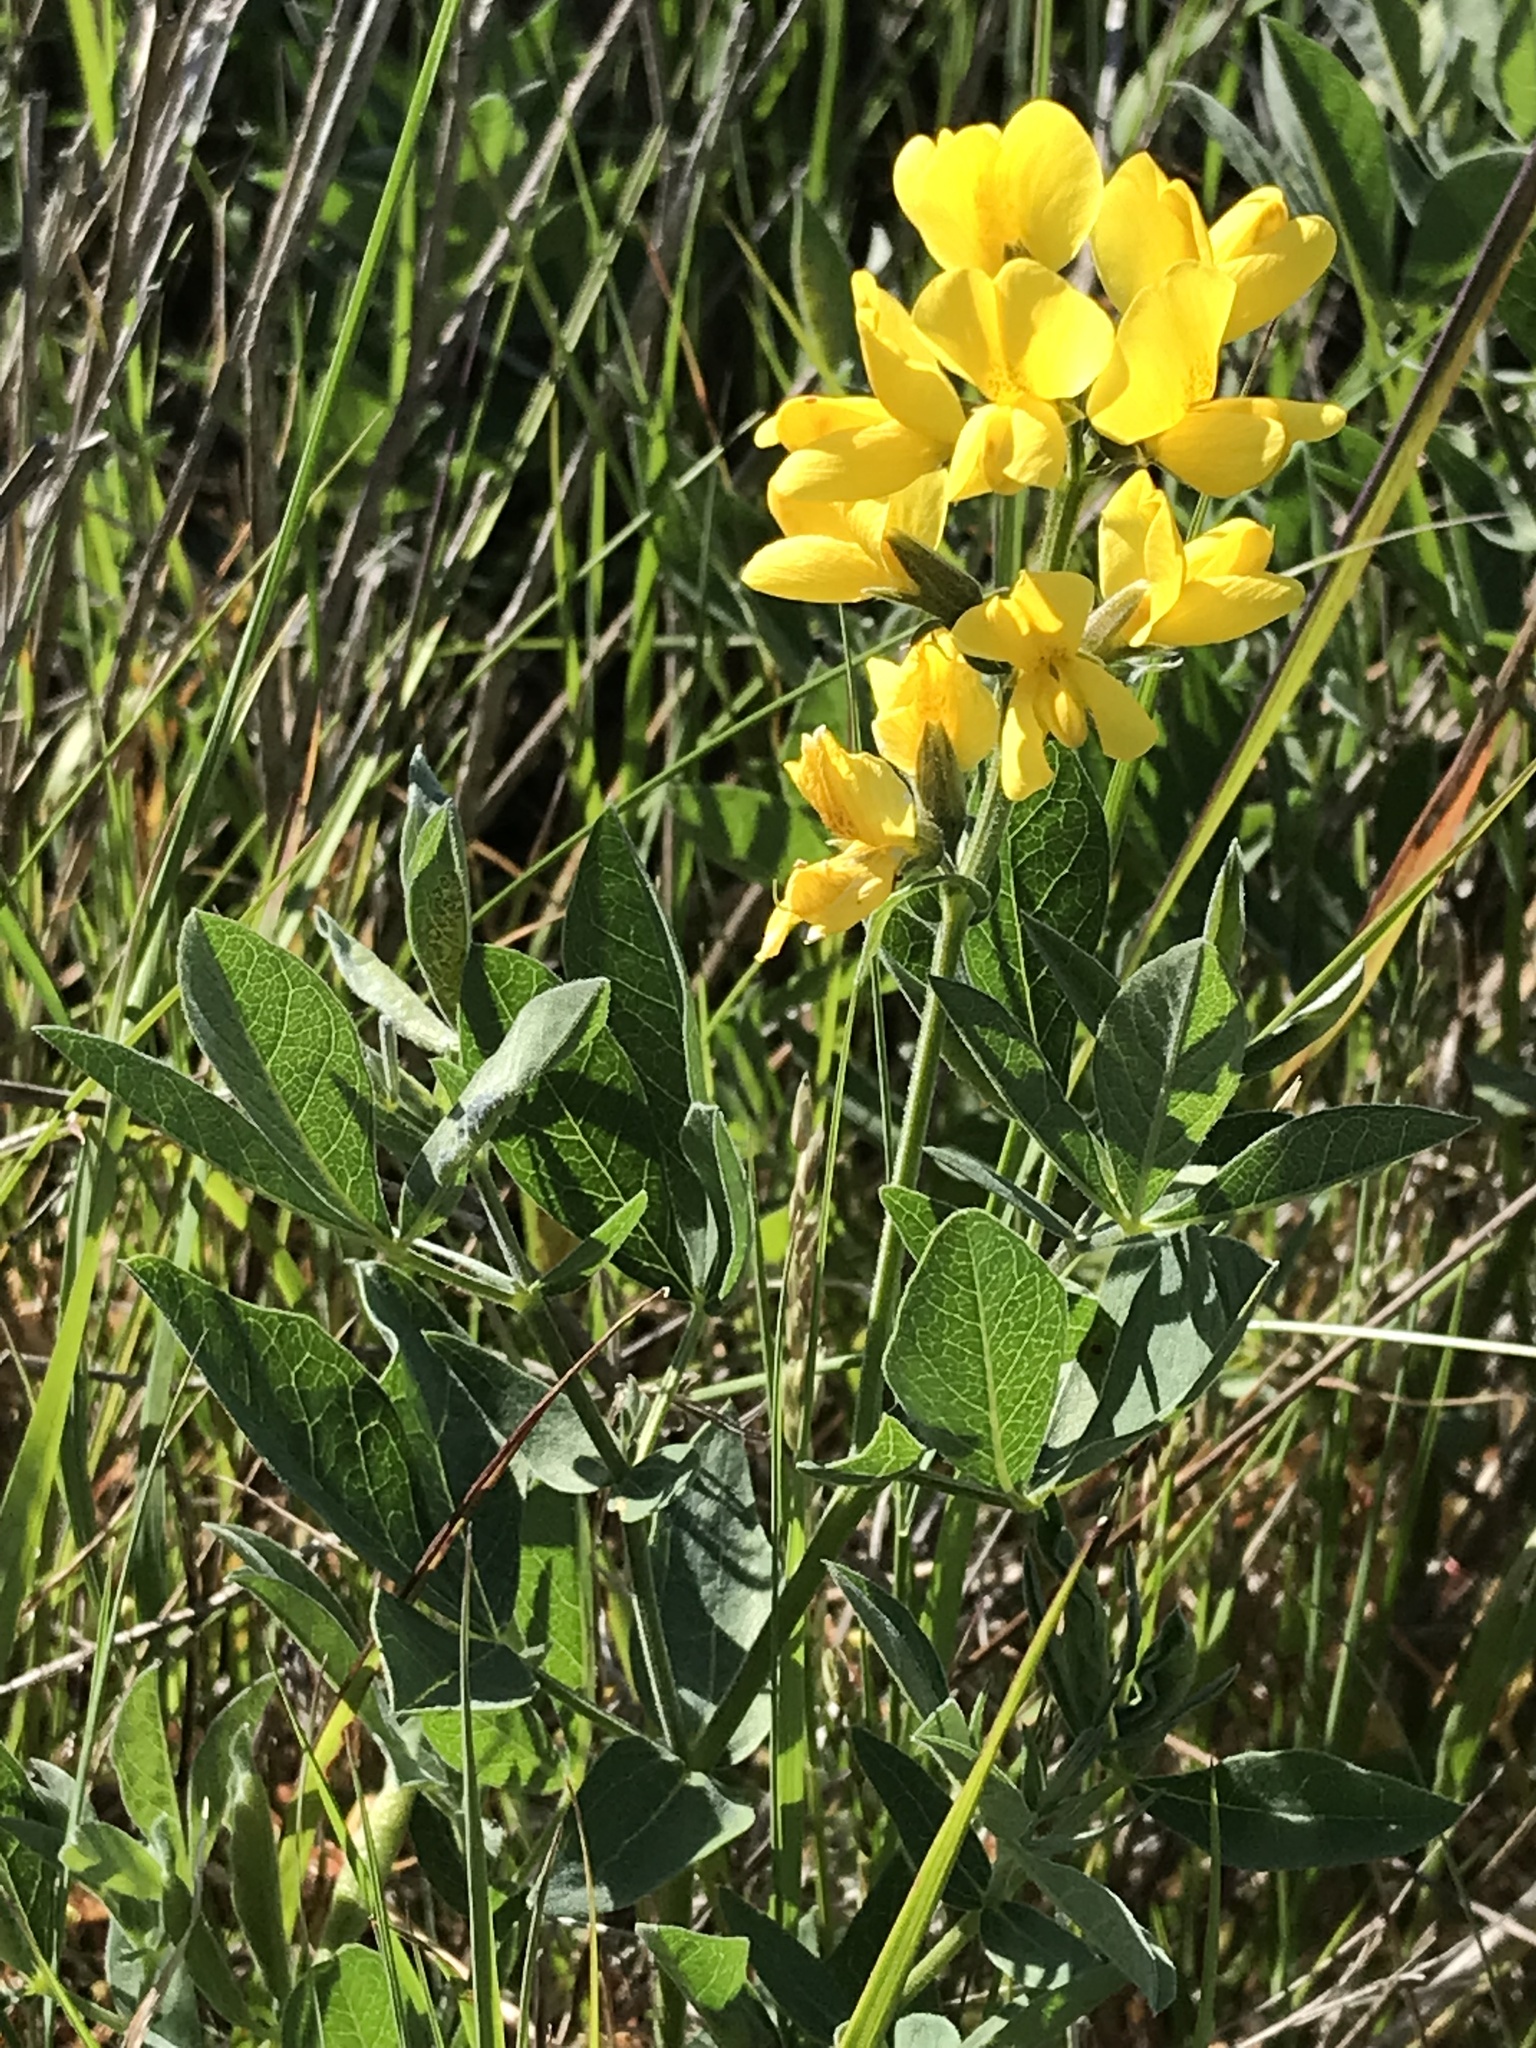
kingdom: Plantae
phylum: Tracheophyta
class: Magnoliopsida
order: Fabales
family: Fabaceae
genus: Thermopsis
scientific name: Thermopsis californica
